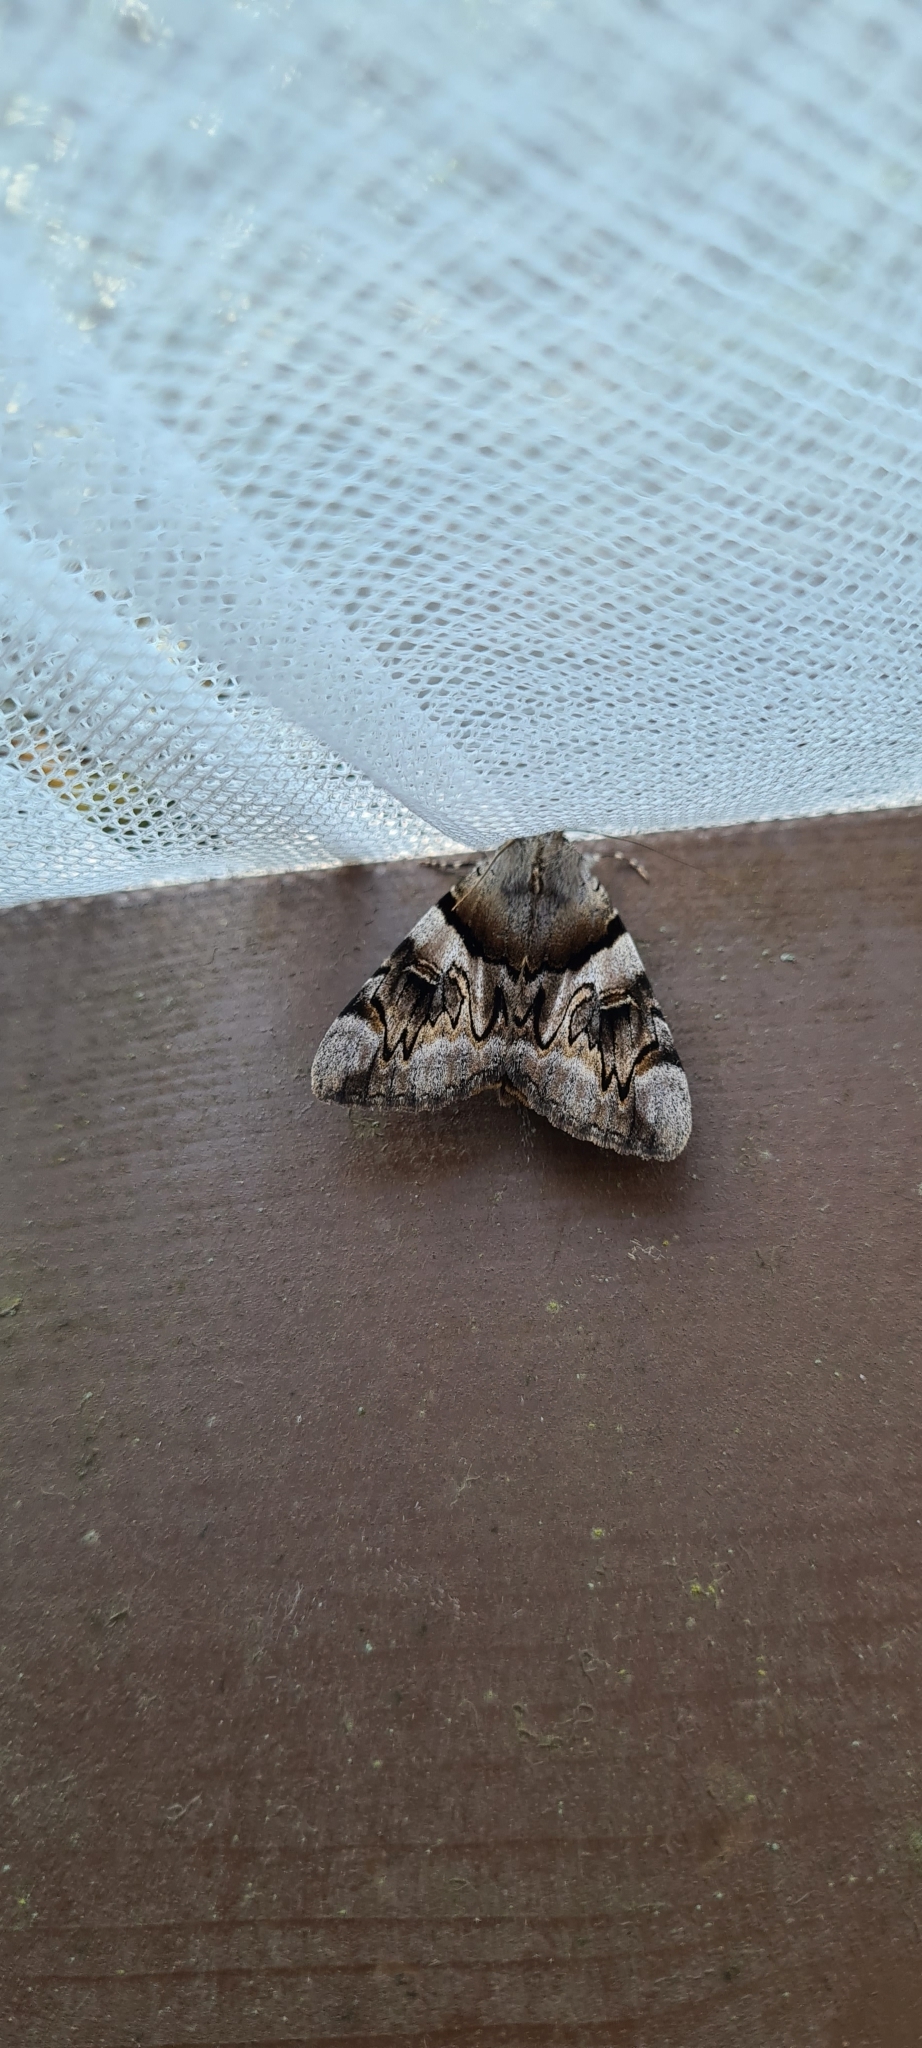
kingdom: Animalia
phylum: Arthropoda
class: Insecta
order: Lepidoptera
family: Erebidae
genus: Catocala
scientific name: Catocala fulminea
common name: Yellow bands underwing
